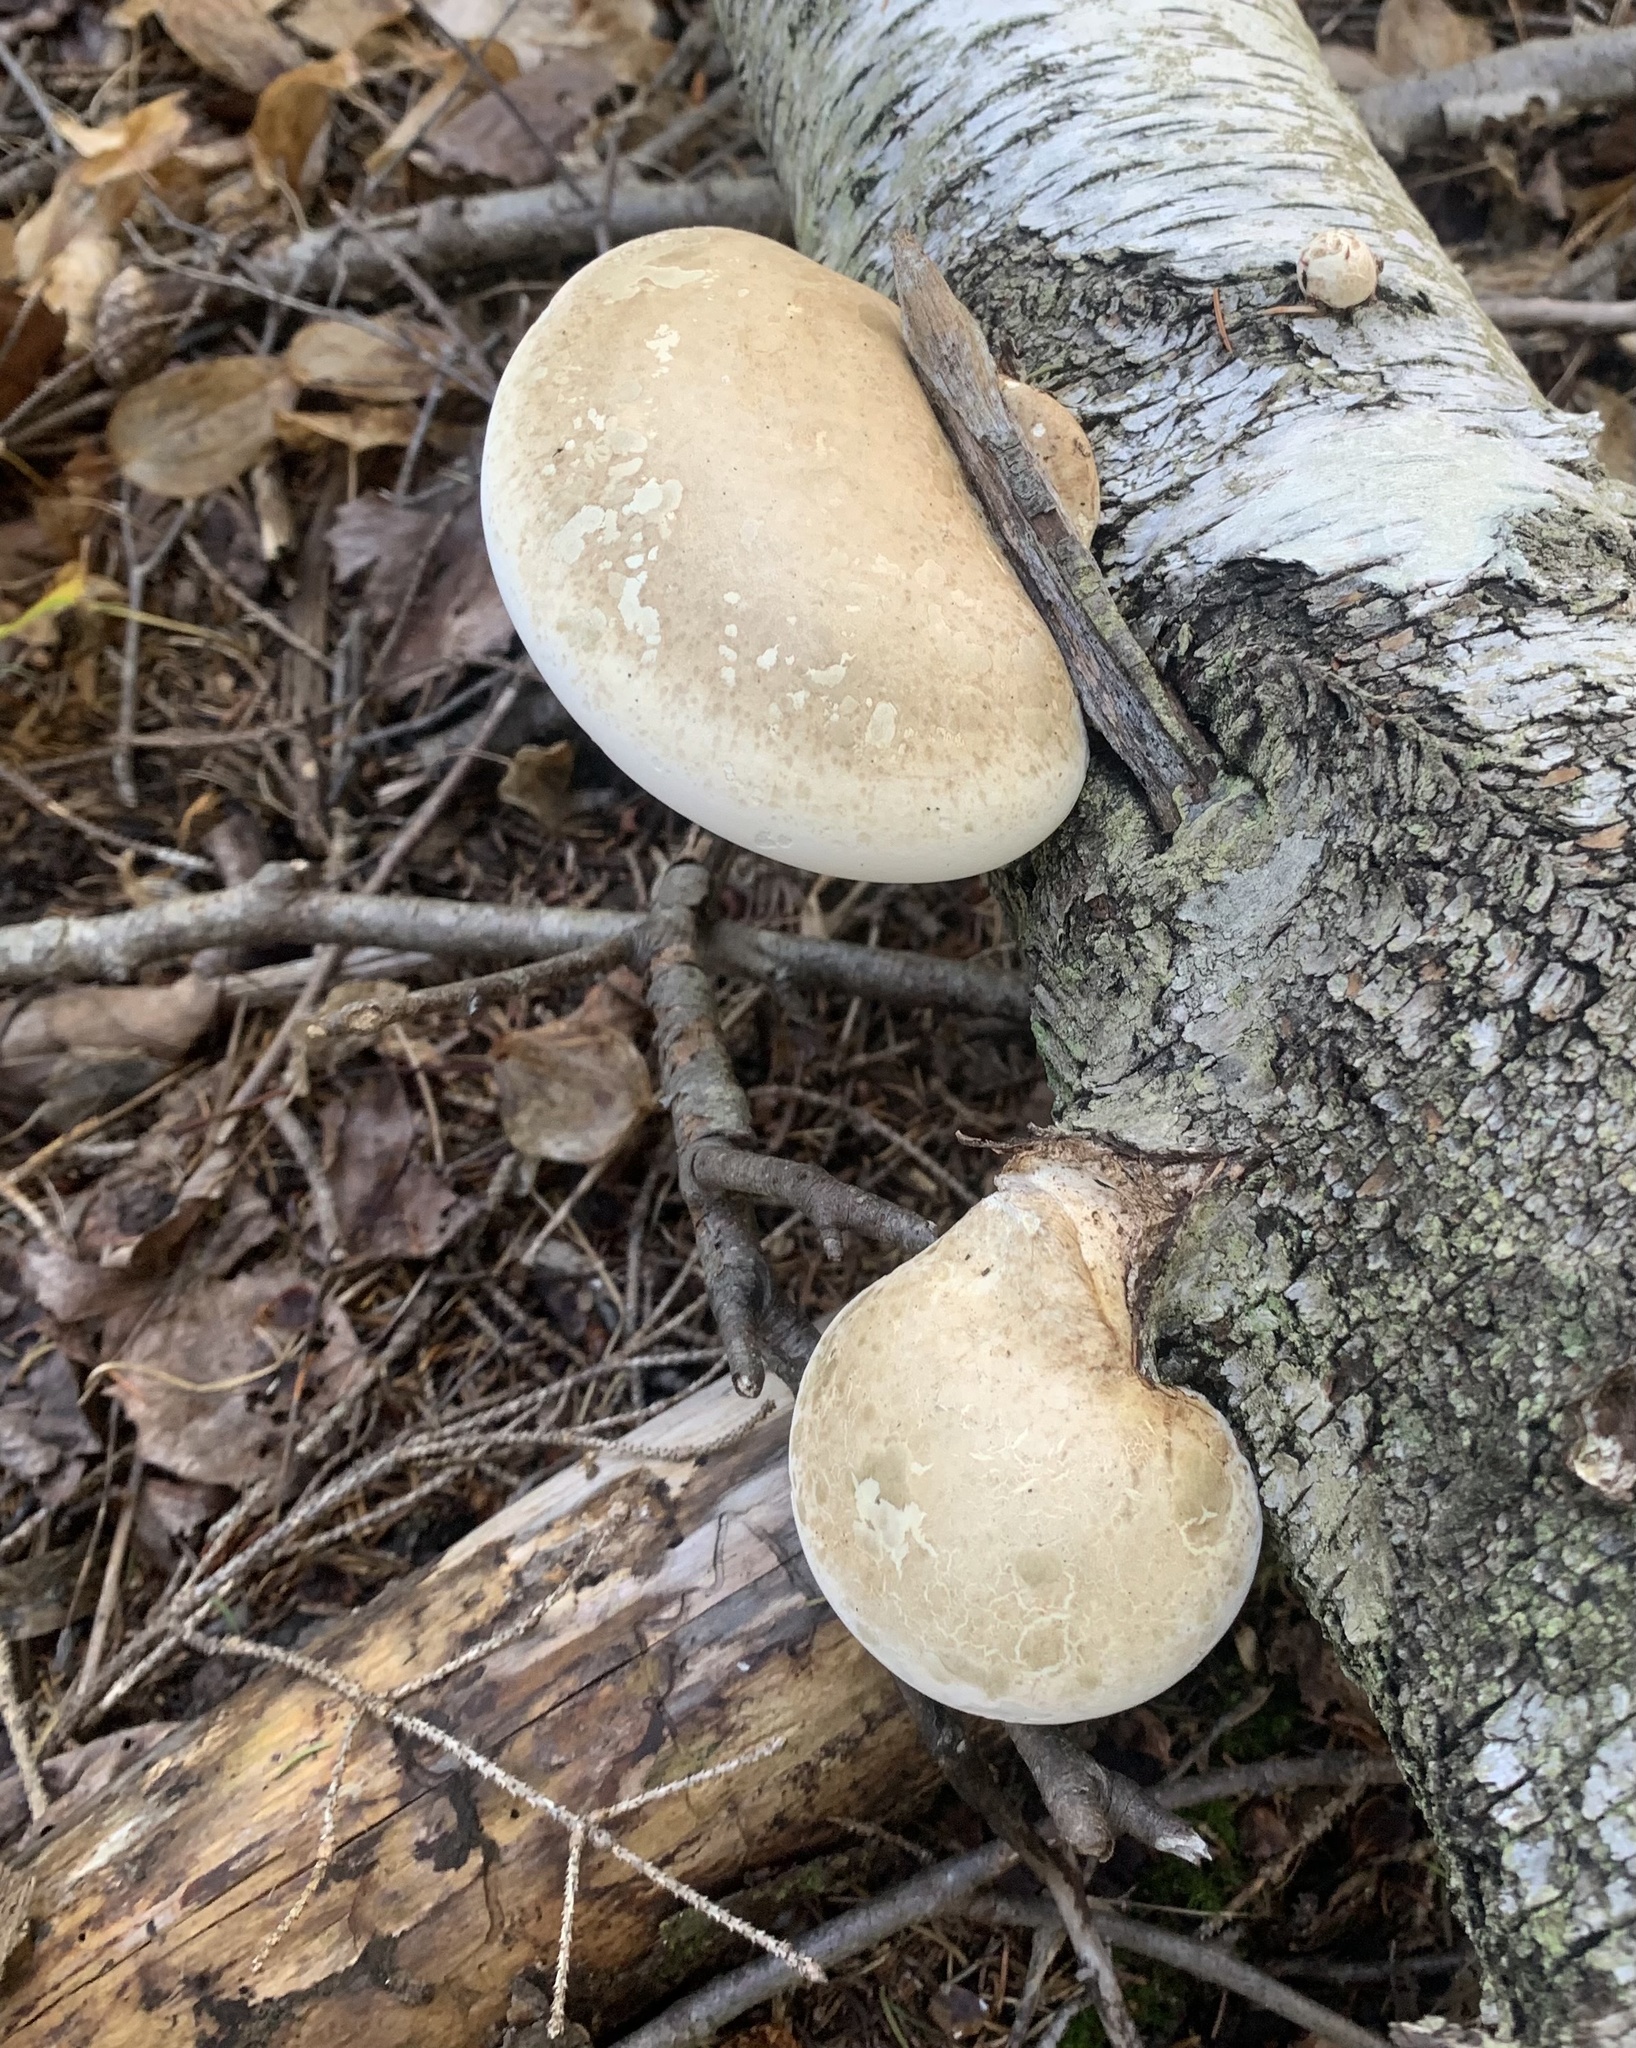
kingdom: Fungi
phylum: Basidiomycota
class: Agaricomycetes
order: Polyporales
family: Fomitopsidaceae
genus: Fomitopsis
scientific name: Fomitopsis betulina
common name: Birch polypore
